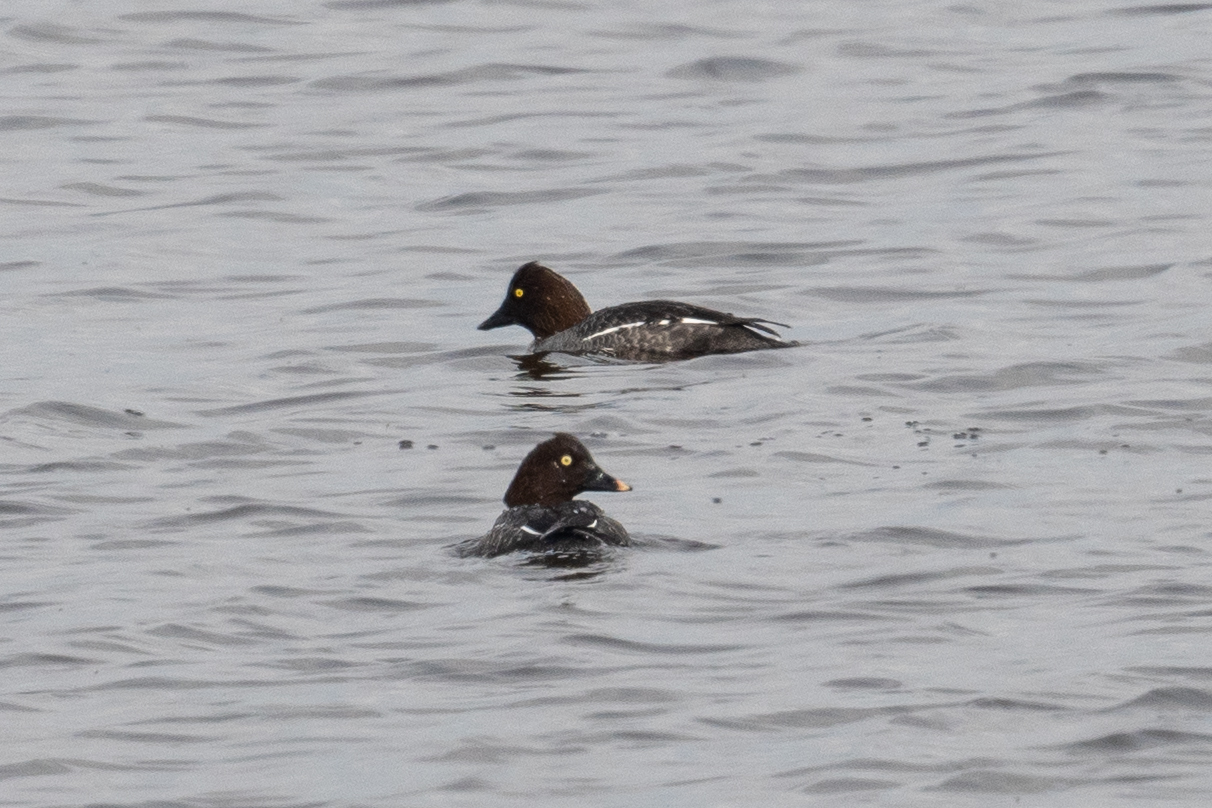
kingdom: Animalia
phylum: Chordata
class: Aves
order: Anseriformes
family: Anatidae
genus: Bucephala
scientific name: Bucephala clangula
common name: Common goldeneye
